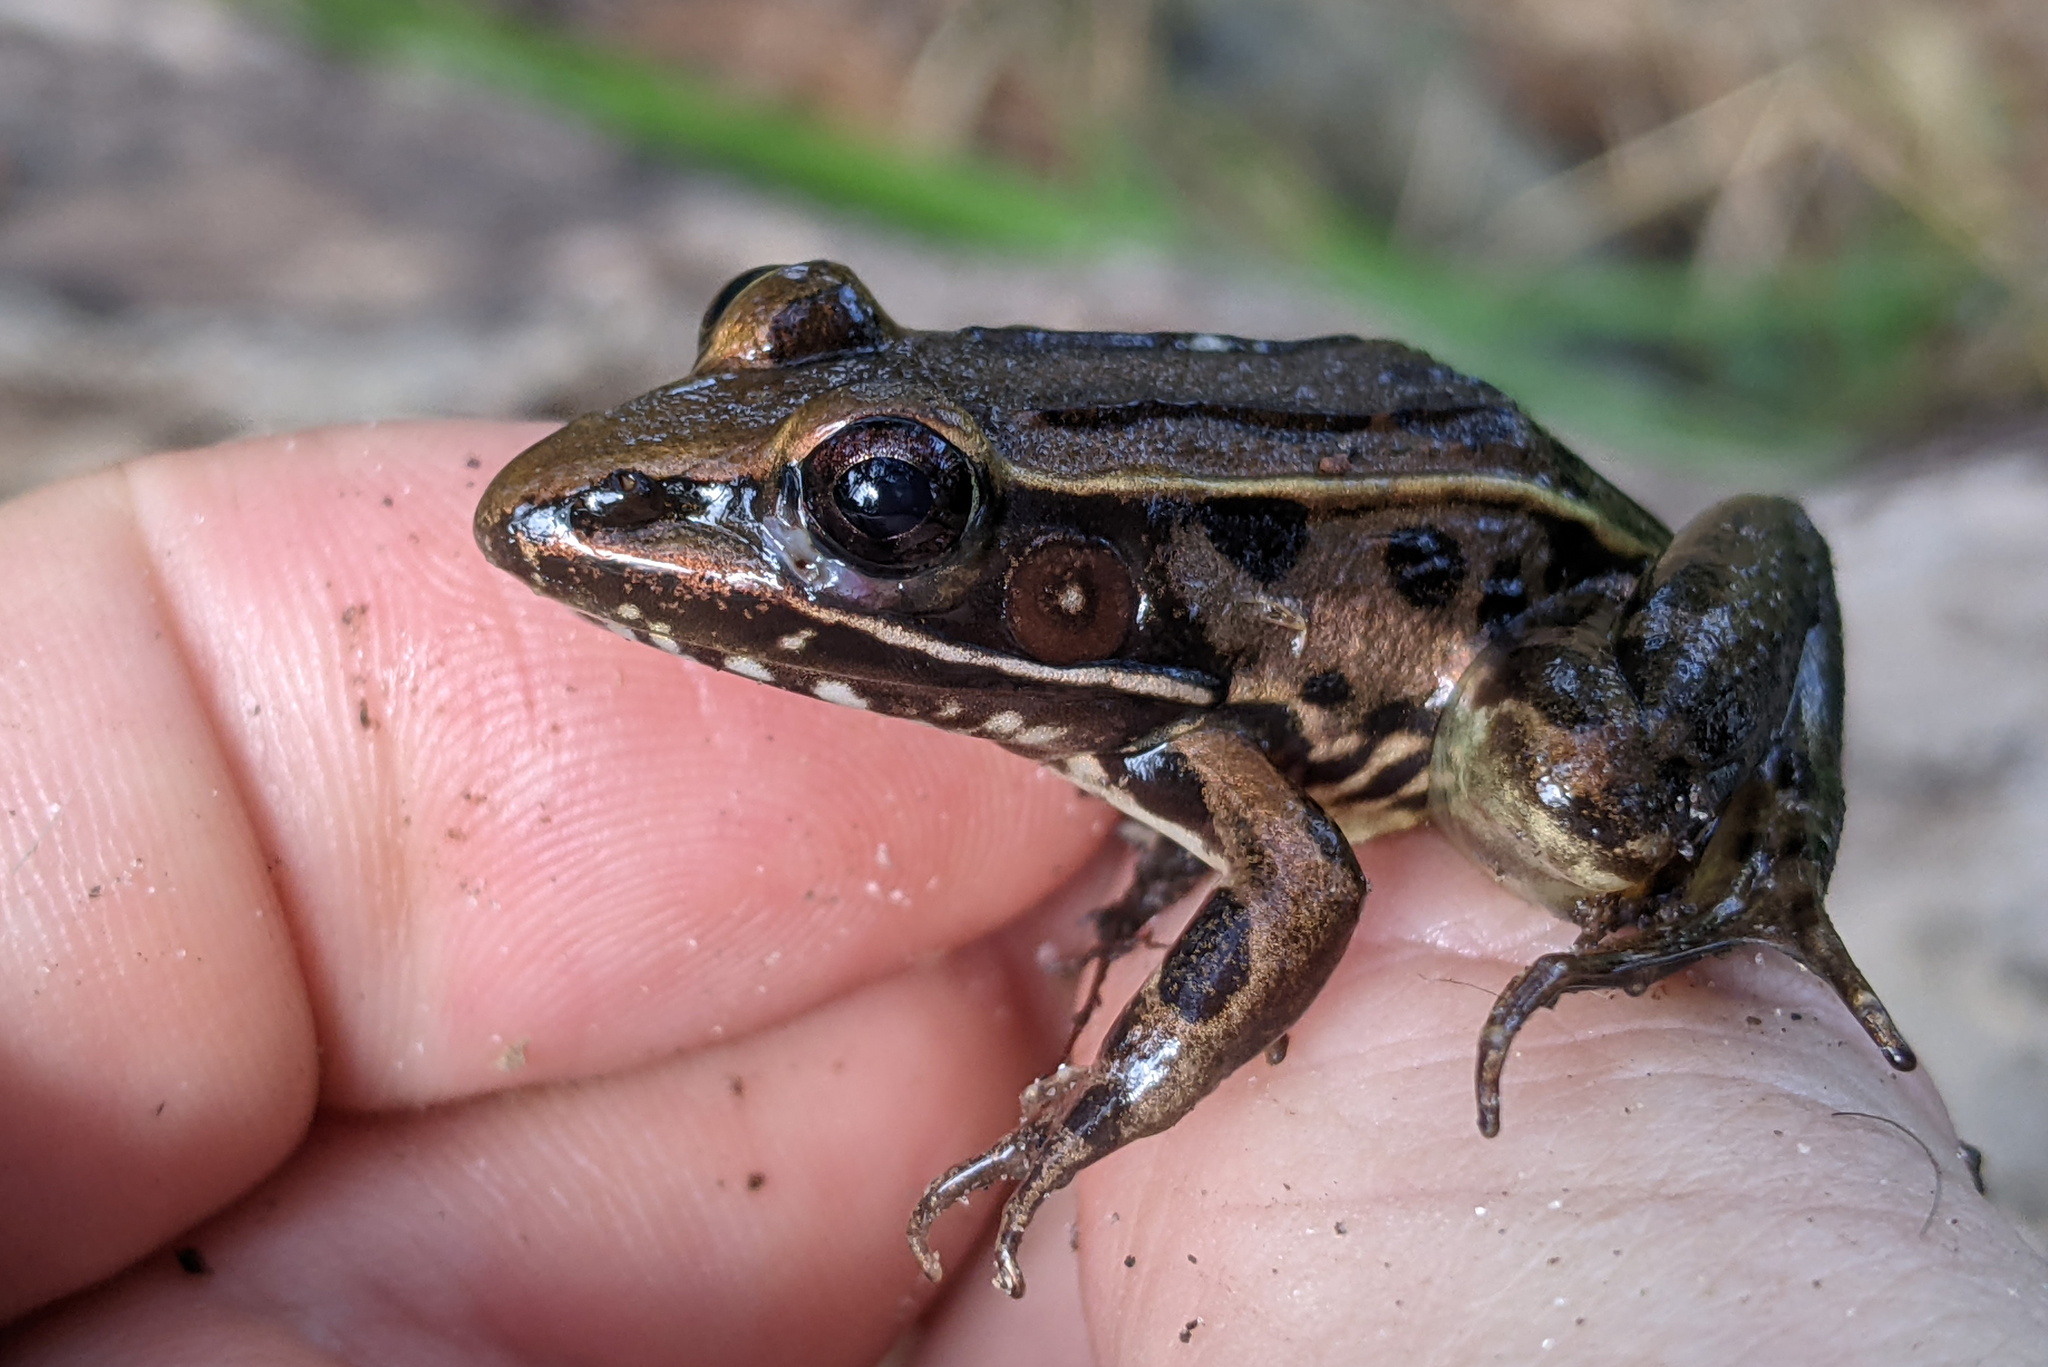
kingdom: Animalia
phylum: Chordata
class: Amphibia
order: Anura
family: Ranidae
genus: Lithobates
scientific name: Lithobates sphenocephalus
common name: Southern leopard frog
